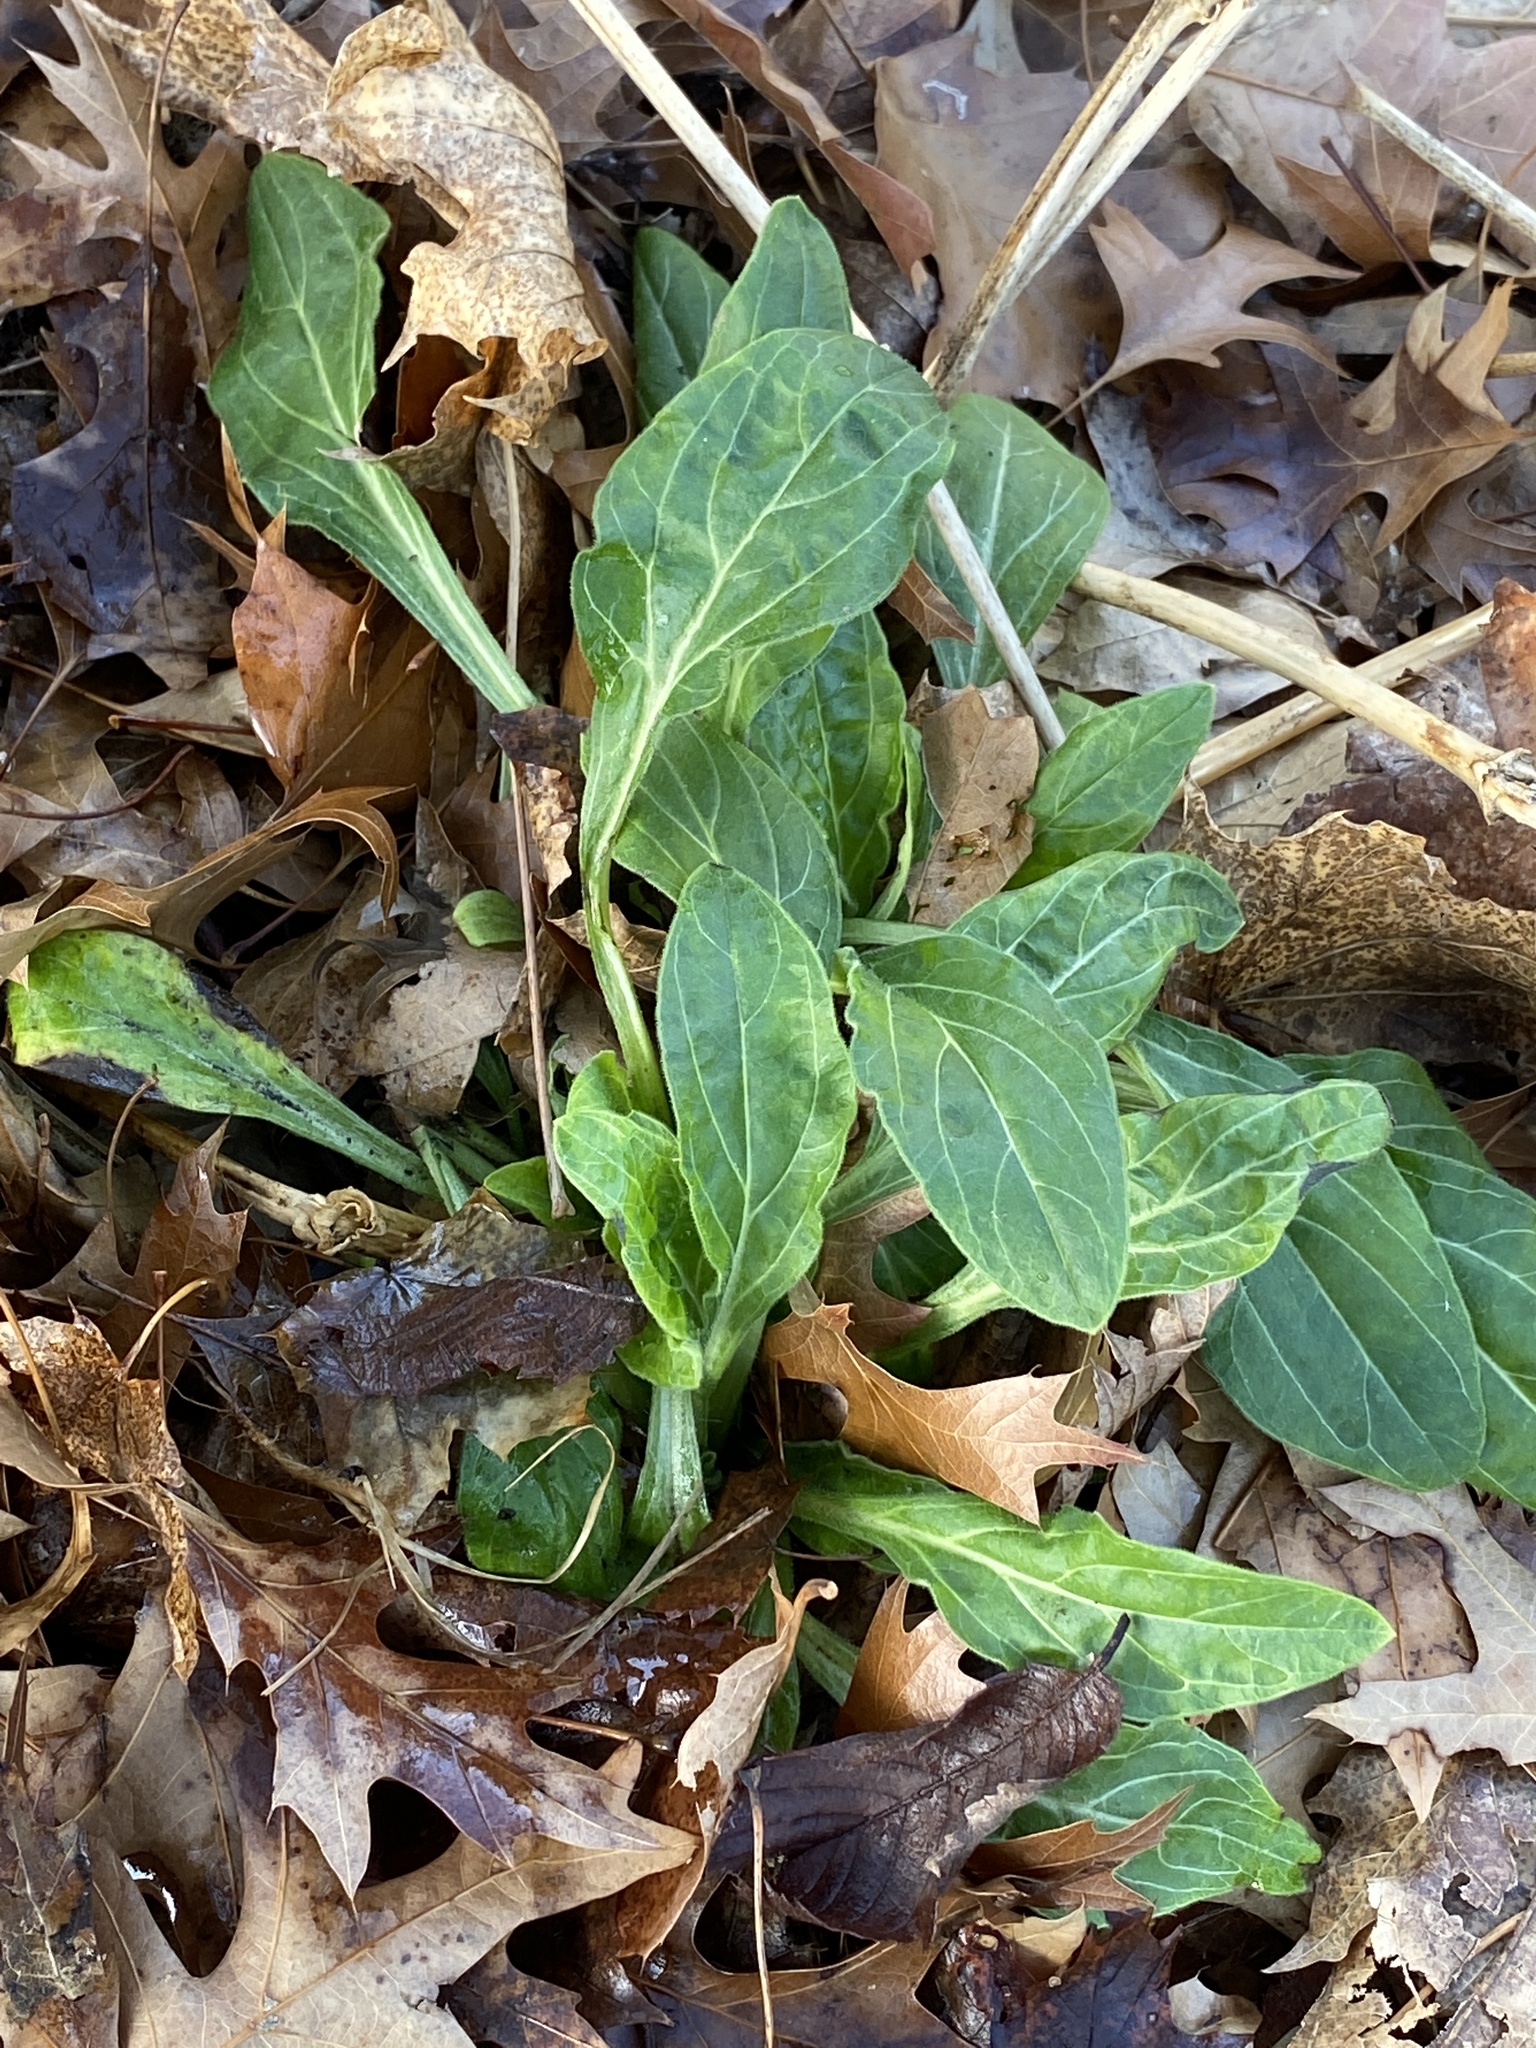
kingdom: Plantae
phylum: Tracheophyta
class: Magnoliopsida
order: Caryophyllales
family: Caryophyllaceae
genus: Silene
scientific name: Silene latifolia
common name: White campion
